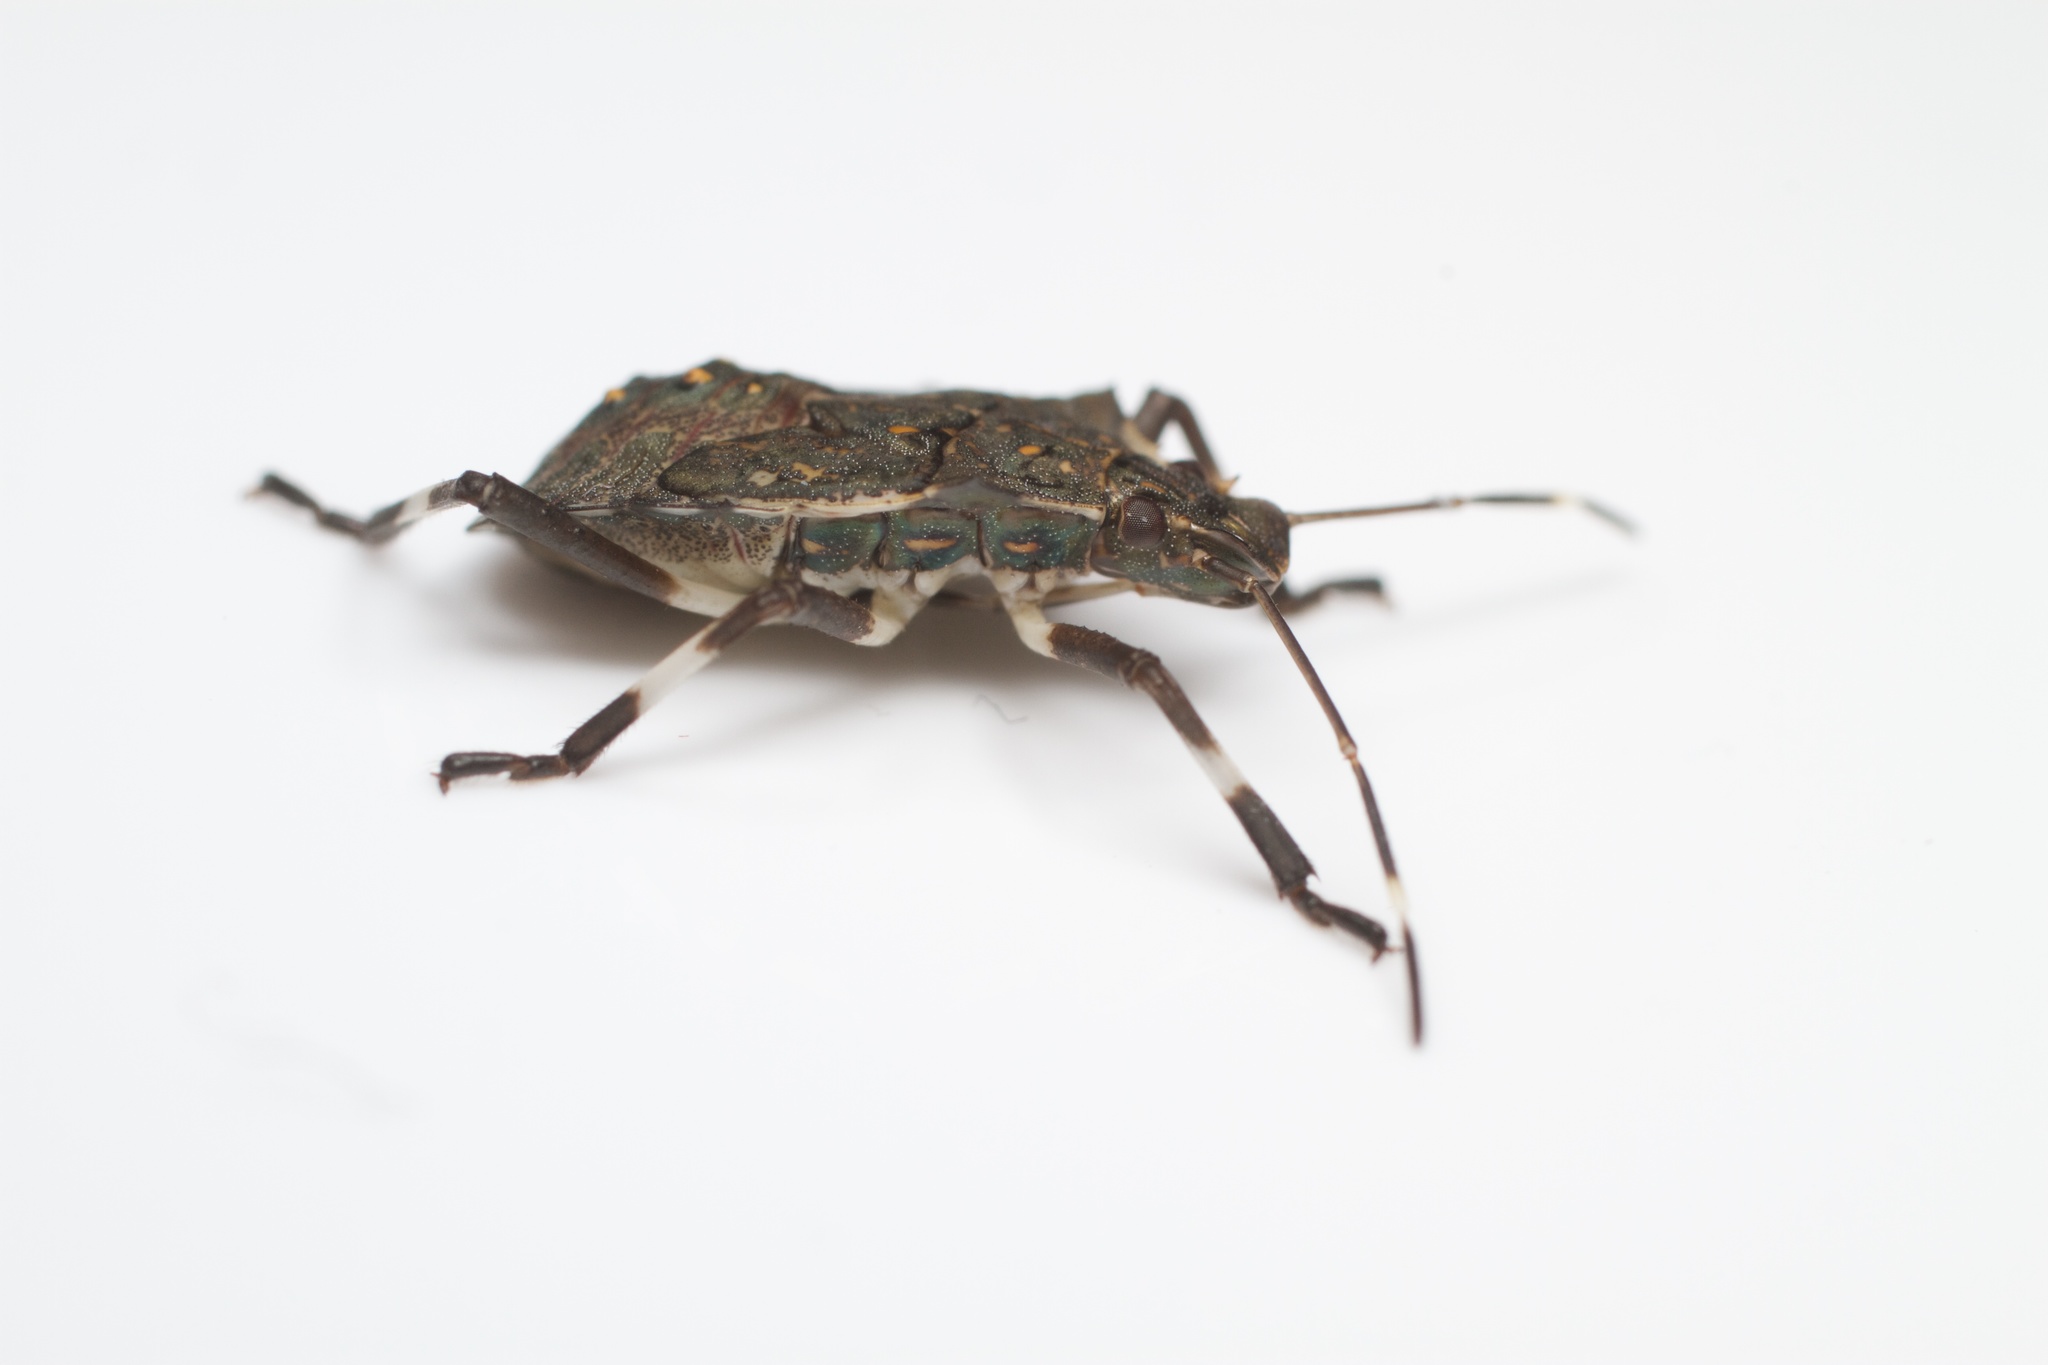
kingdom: Animalia
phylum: Arthropoda
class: Insecta
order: Hemiptera
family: Pentatomidae
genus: Halyomorpha
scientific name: Halyomorpha halys
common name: Brown marmorated stink bug
